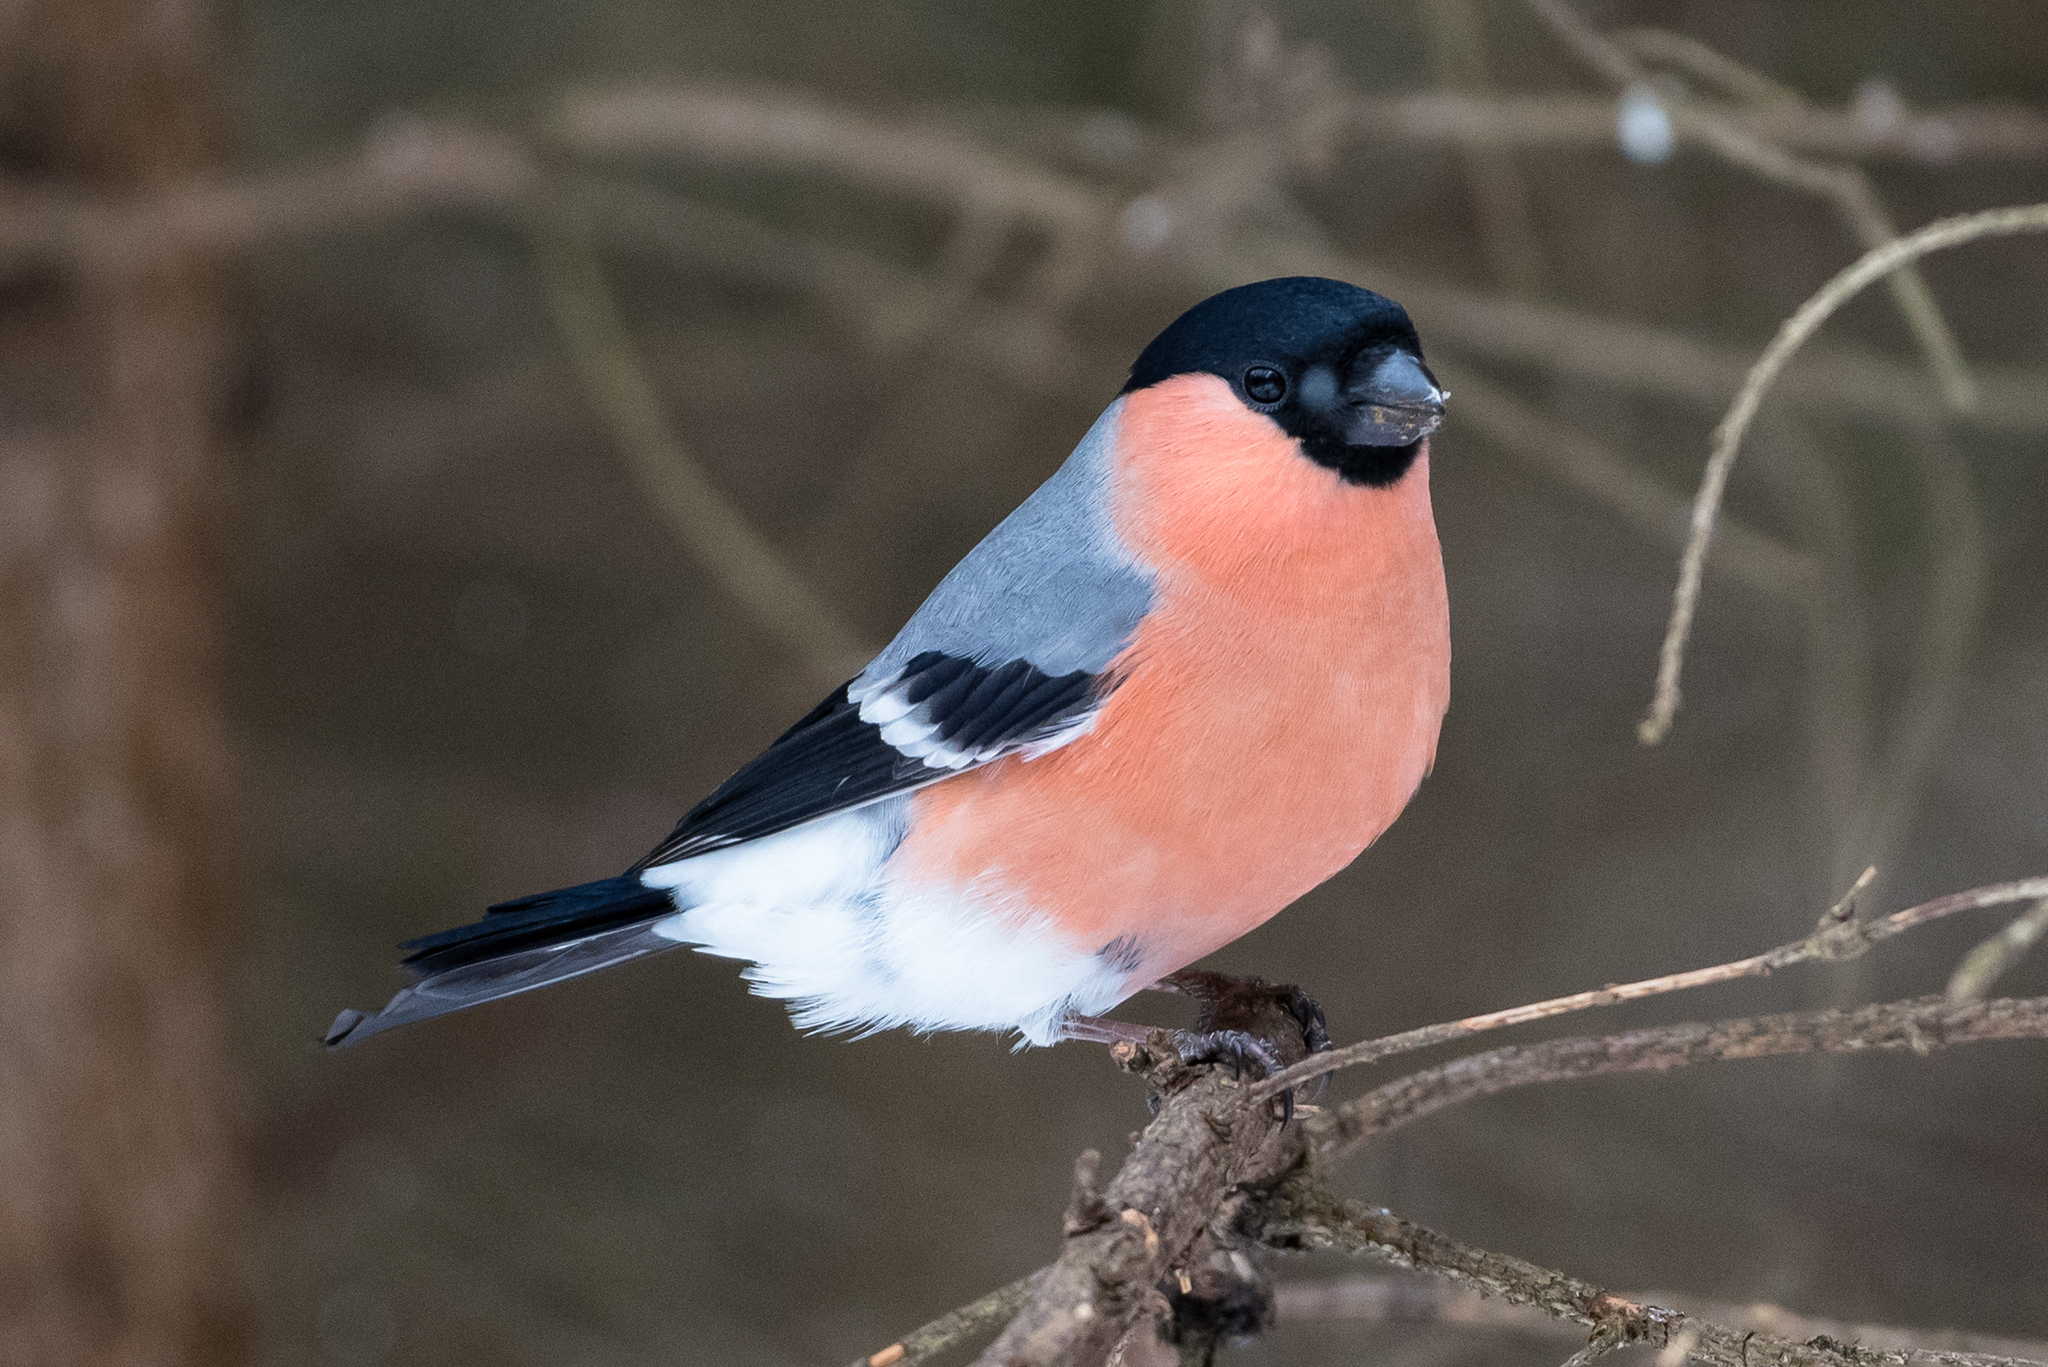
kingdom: Animalia
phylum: Chordata
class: Aves
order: Passeriformes
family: Fringillidae
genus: Pyrrhula
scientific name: Pyrrhula pyrrhula
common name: Eurasian bullfinch
